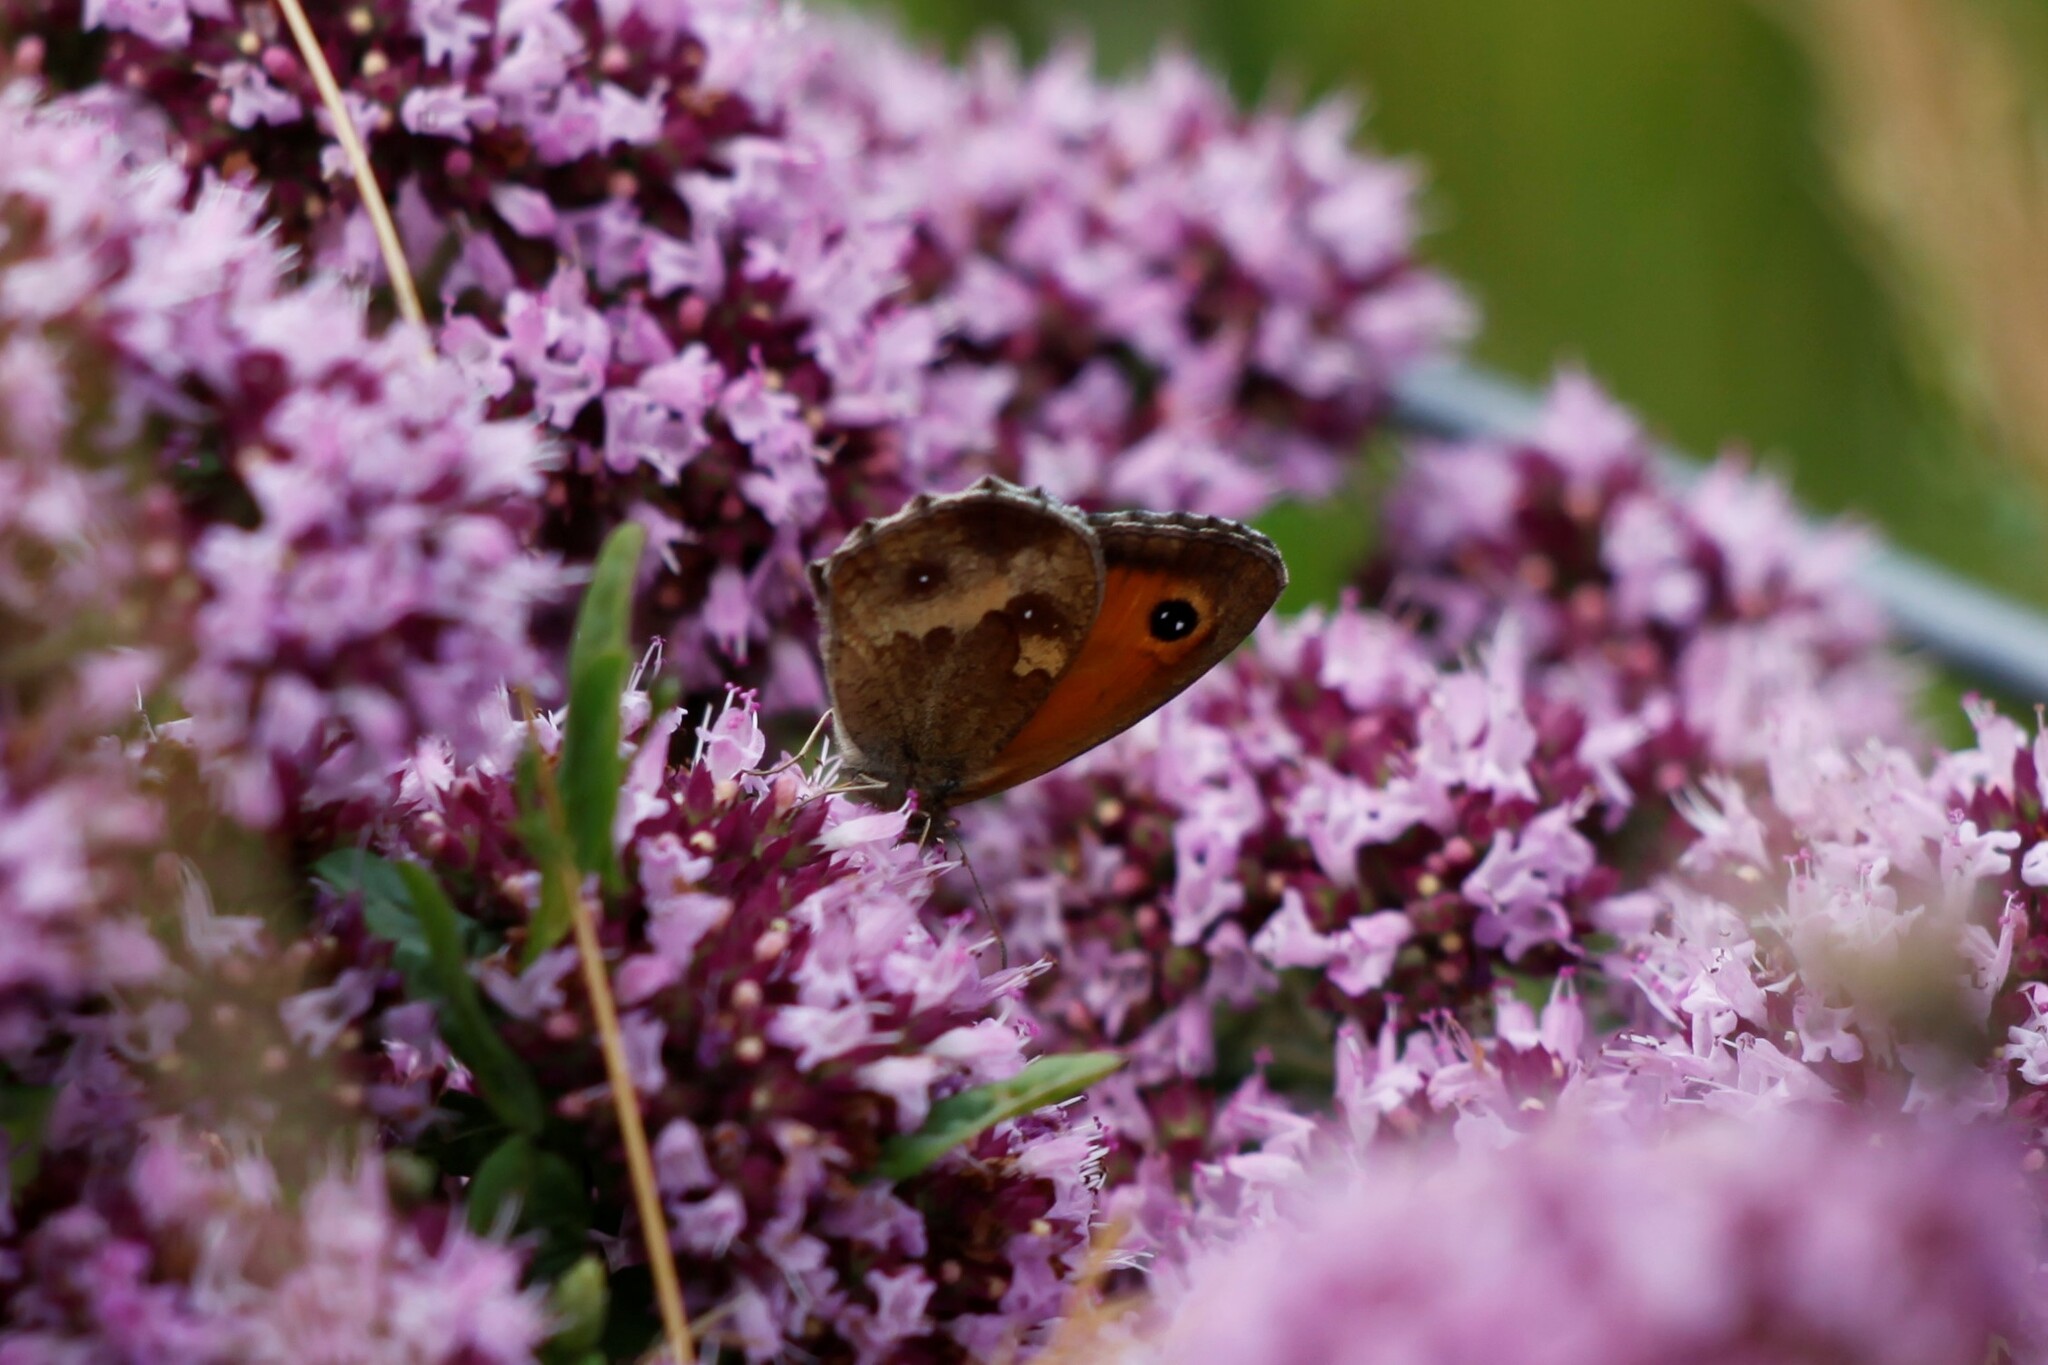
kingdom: Animalia
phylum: Arthropoda
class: Insecta
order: Lepidoptera
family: Nymphalidae
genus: Pyronia
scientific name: Pyronia tithonus
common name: Gatekeeper
